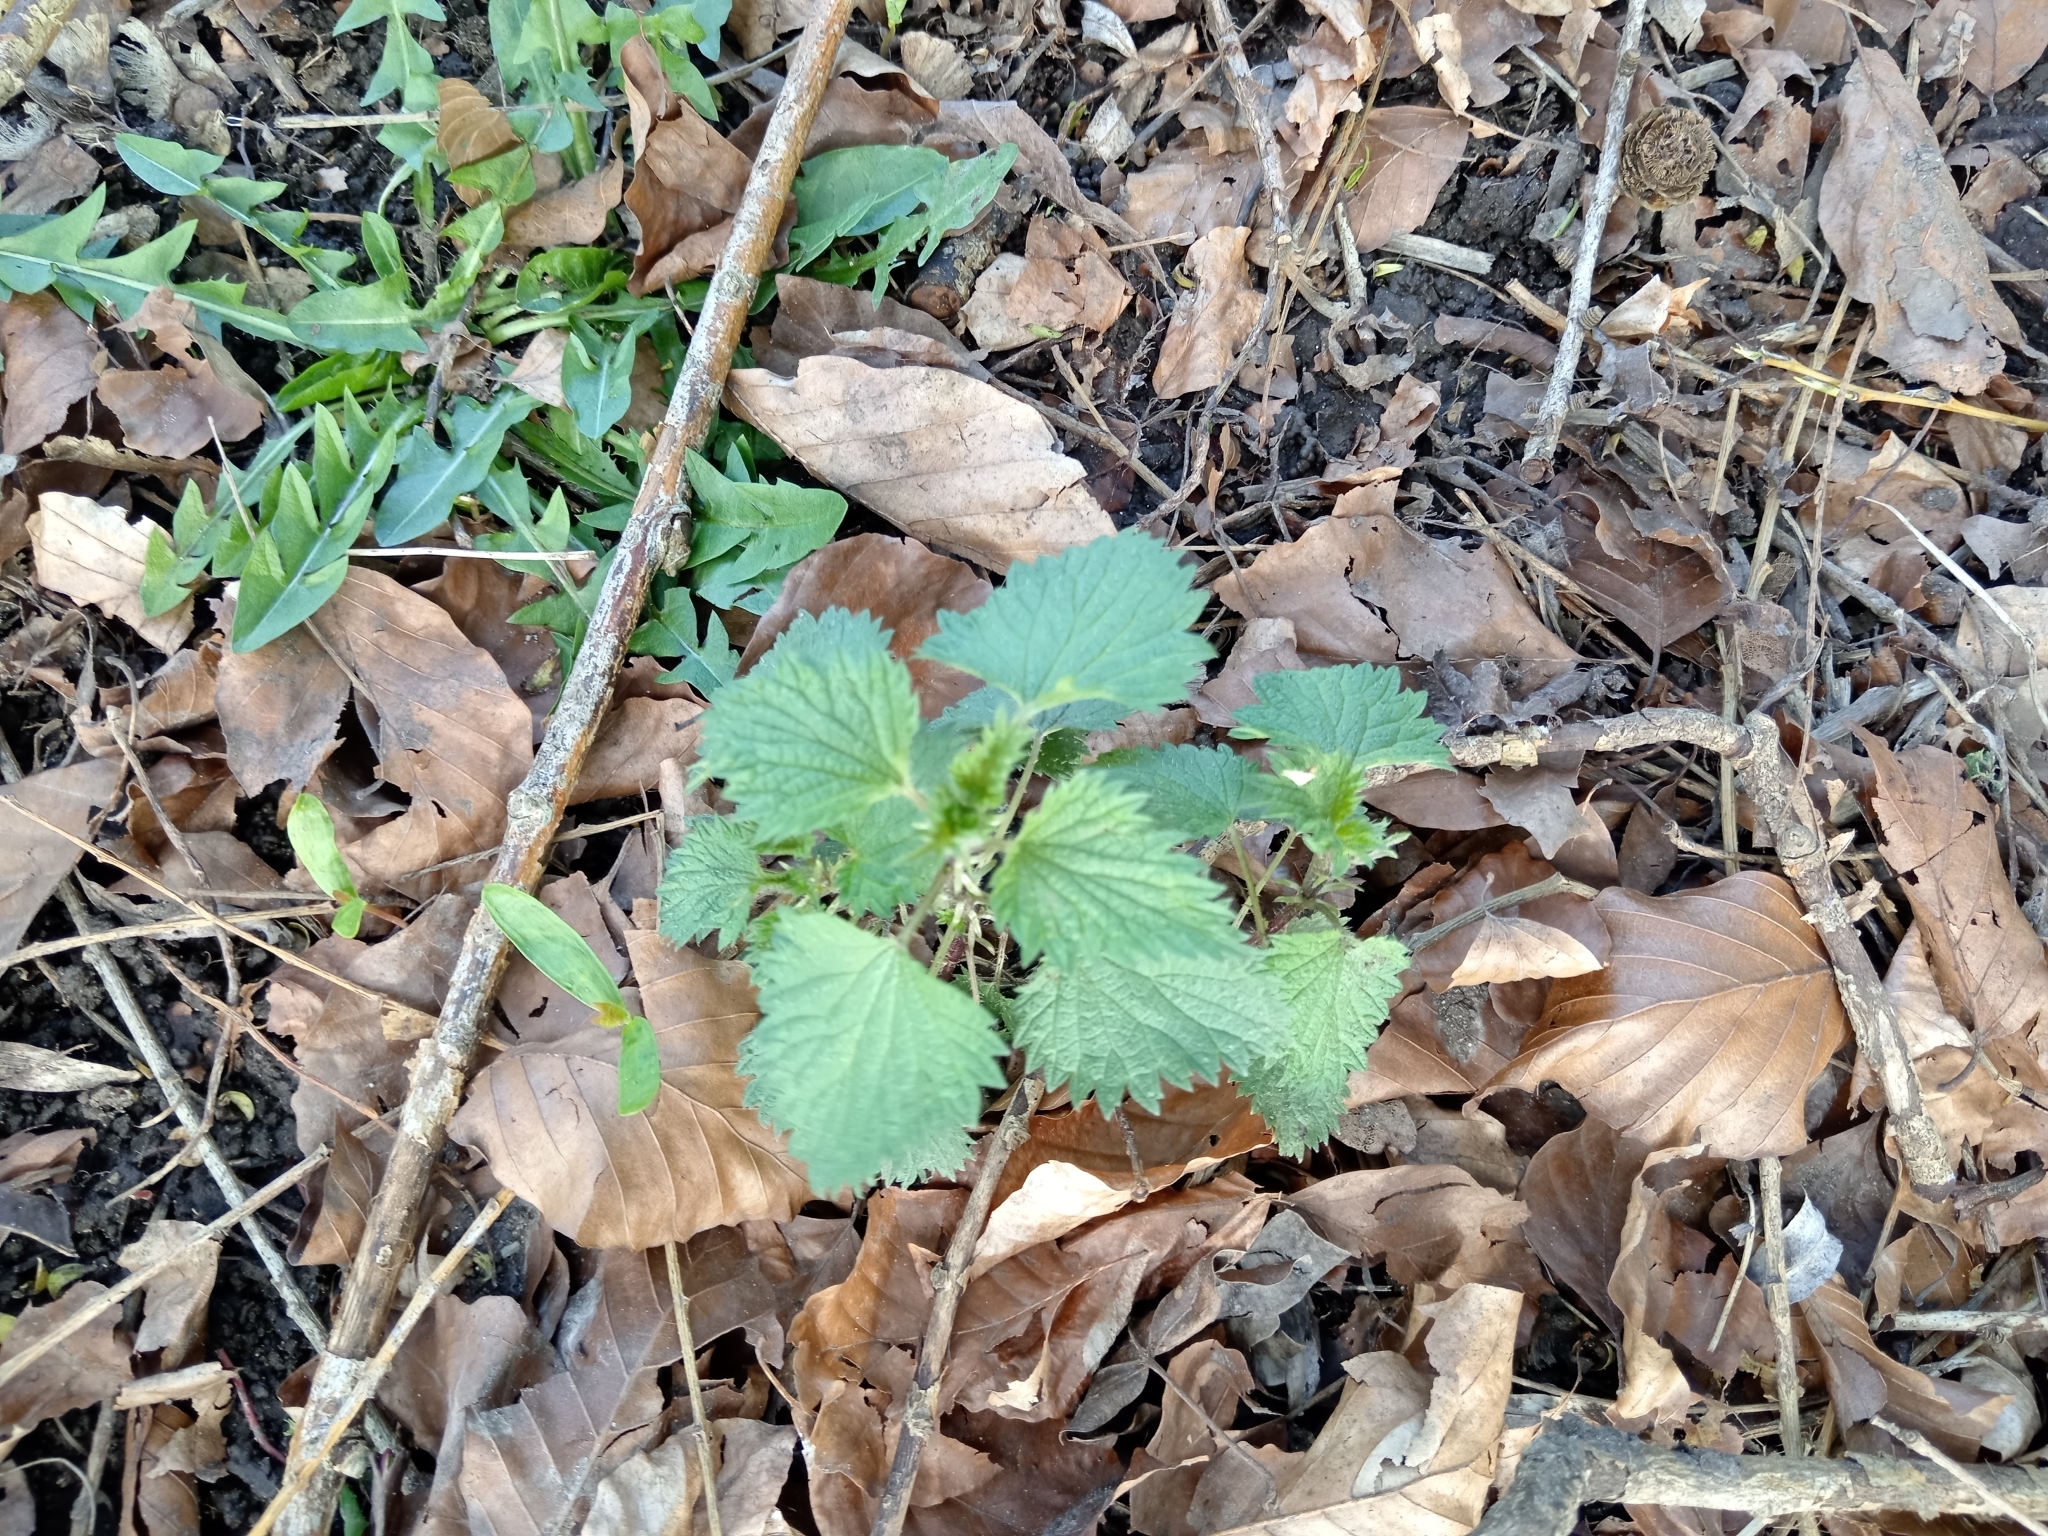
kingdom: Plantae
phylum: Tracheophyta
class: Magnoliopsida
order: Rosales
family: Urticaceae
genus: Urtica
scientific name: Urtica dioica
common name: Common nettle
